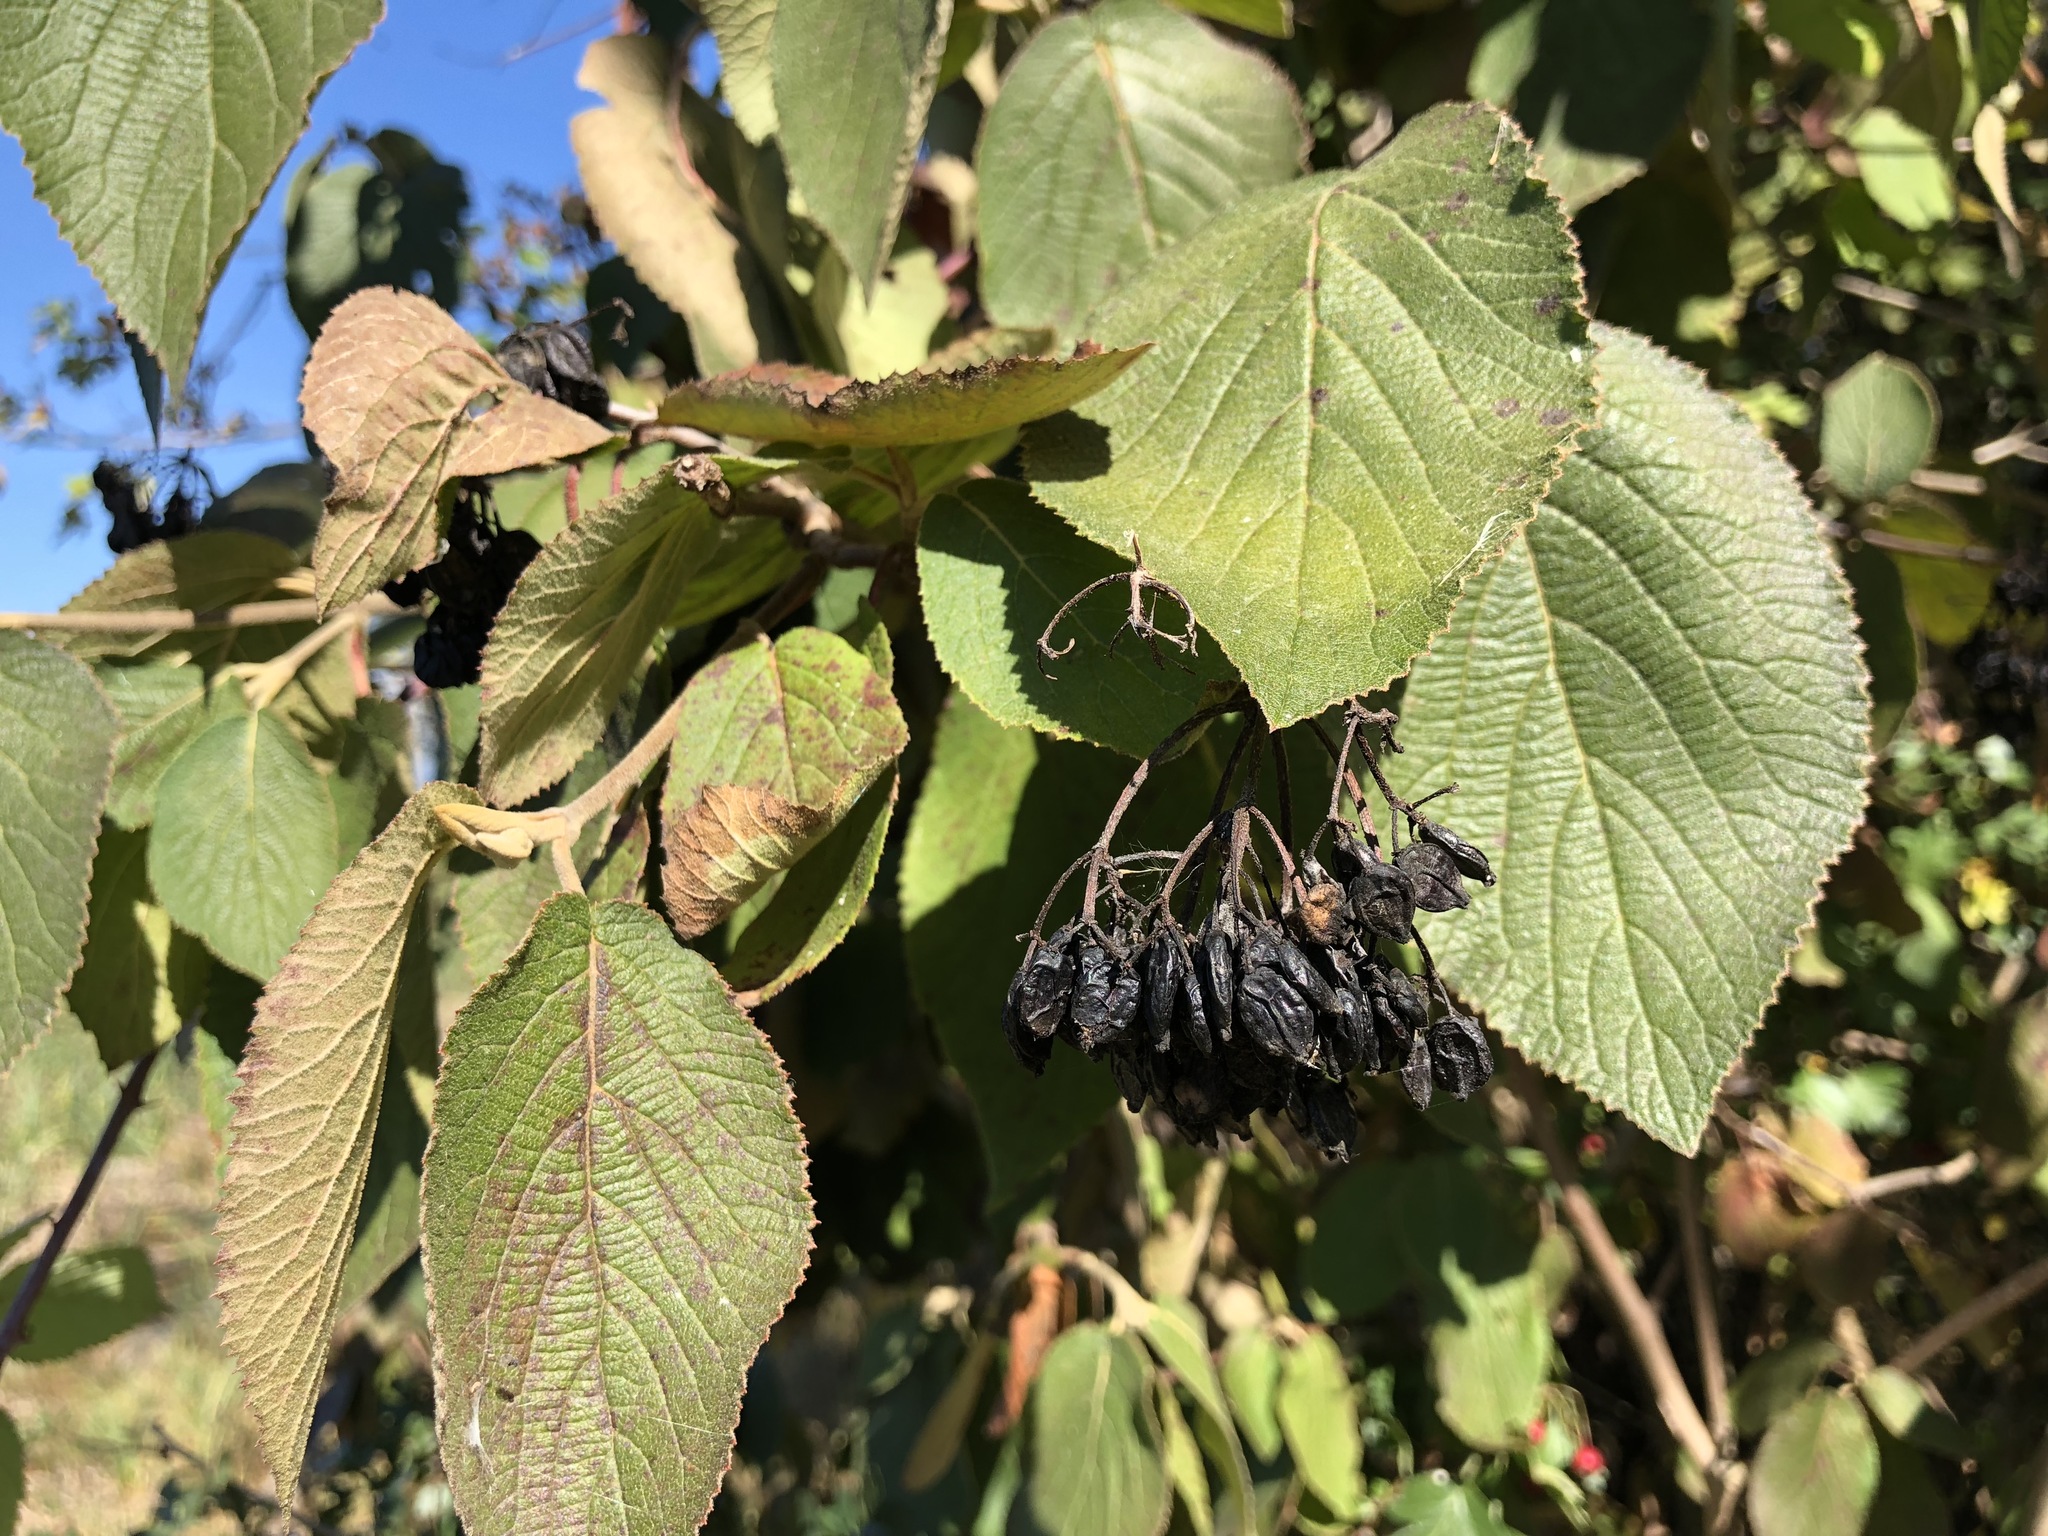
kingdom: Plantae
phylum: Tracheophyta
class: Magnoliopsida
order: Dipsacales
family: Viburnaceae
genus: Viburnum
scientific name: Viburnum lantana
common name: Wayfaring tree
